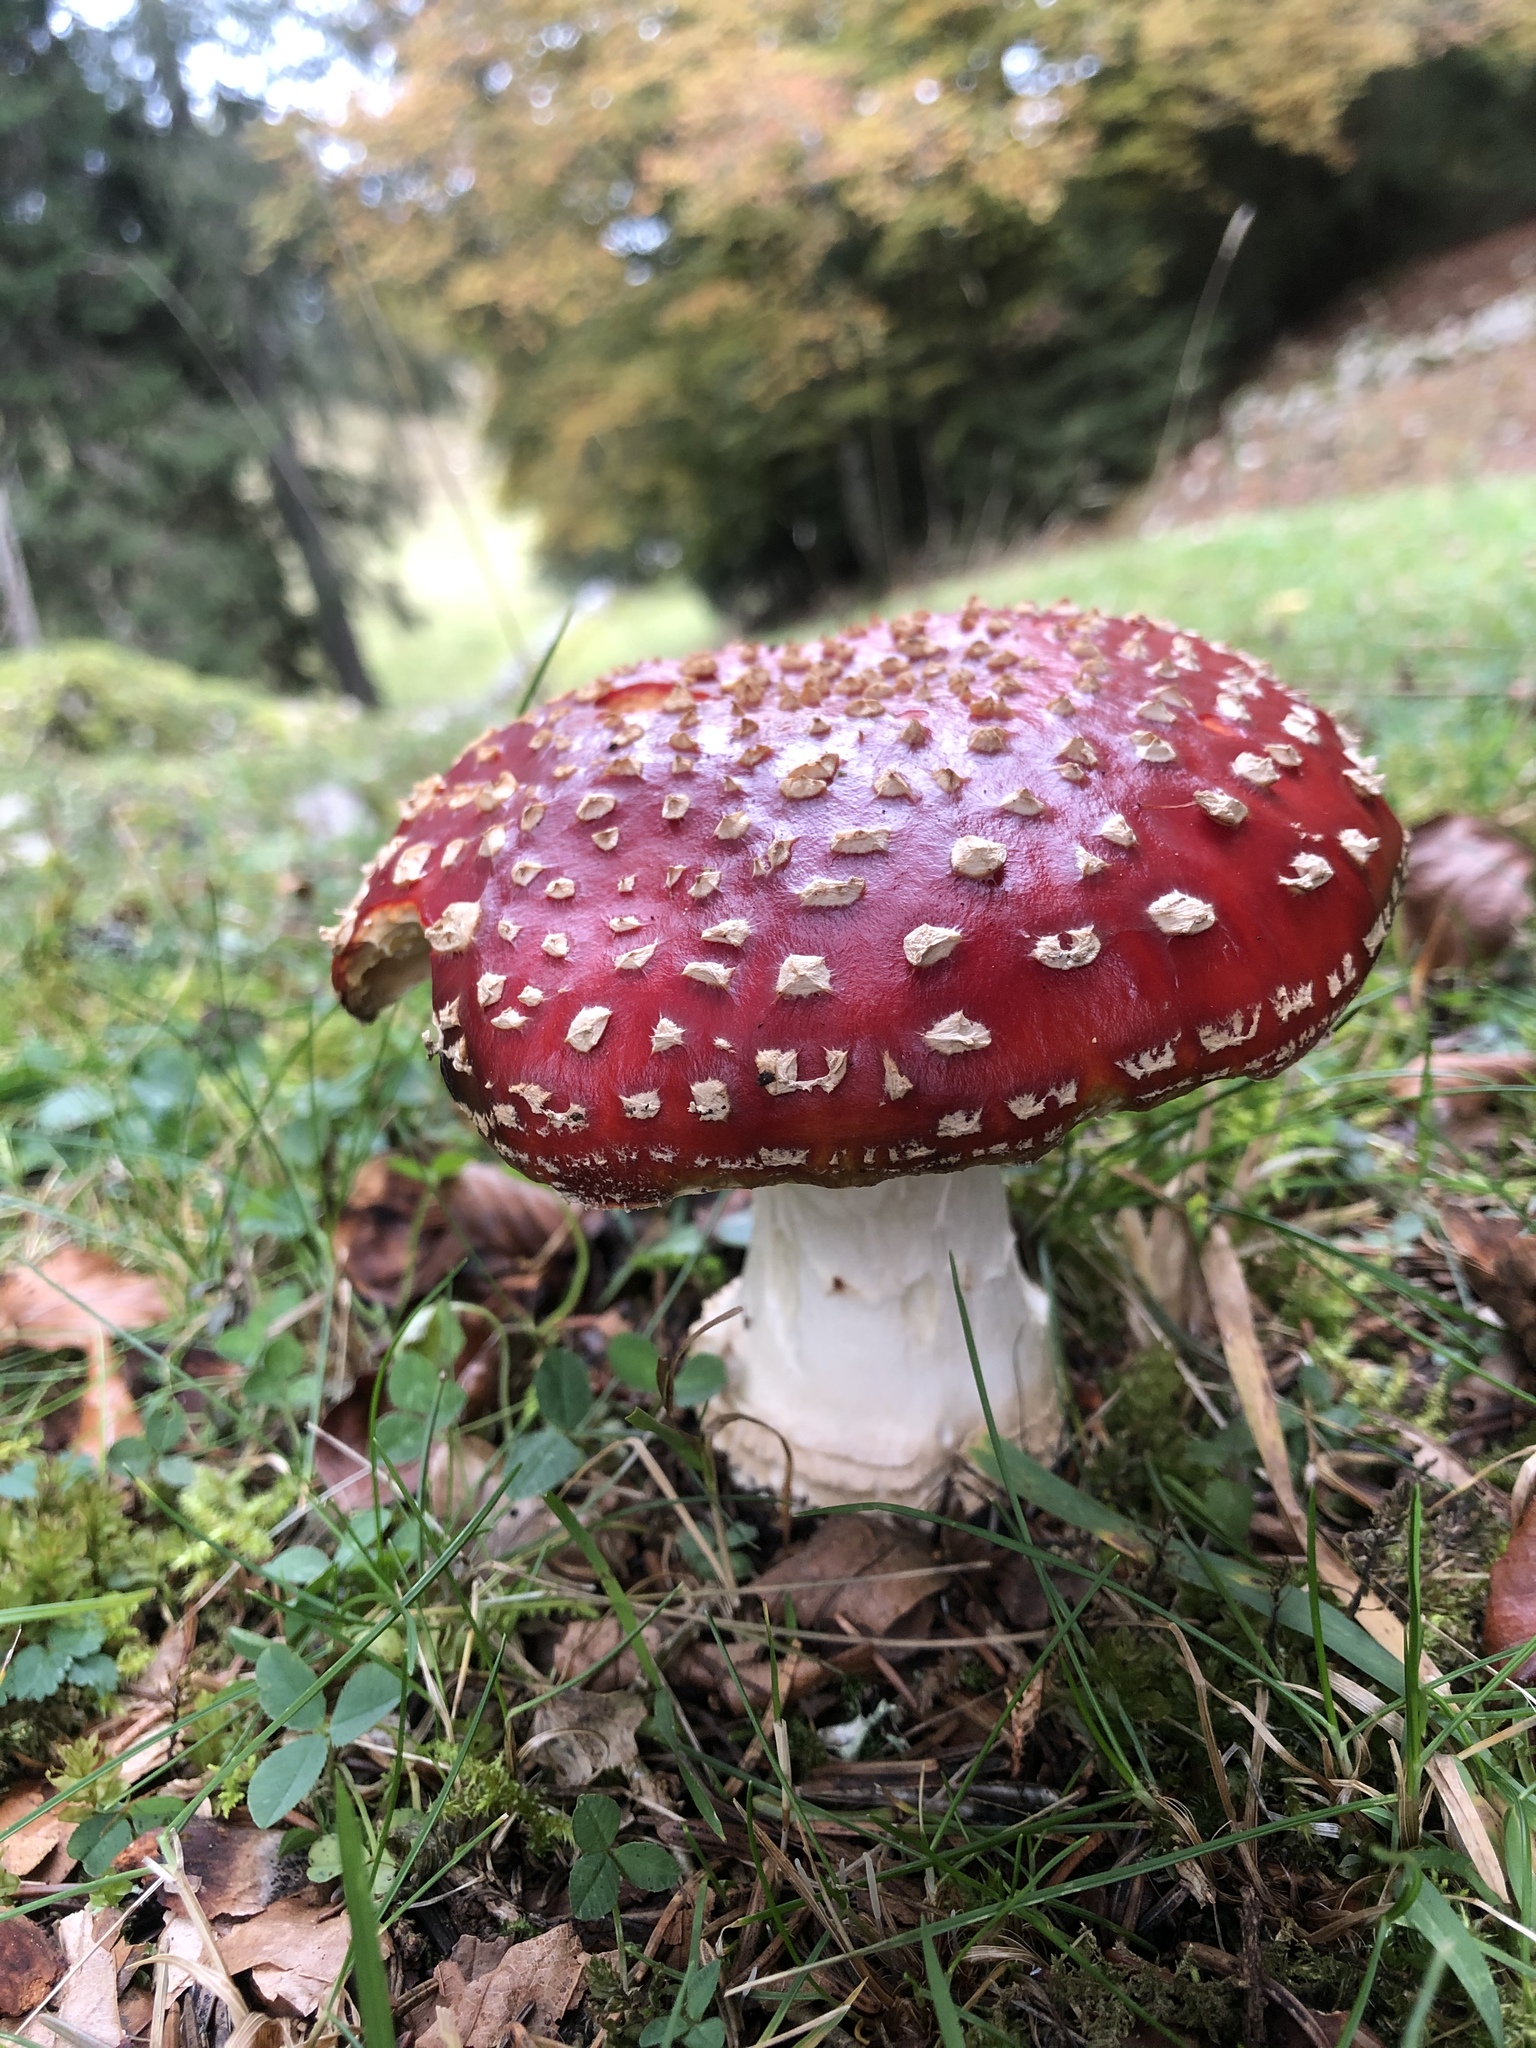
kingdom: Fungi
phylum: Basidiomycota
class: Agaricomycetes
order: Agaricales
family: Amanitaceae
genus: Amanita
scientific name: Amanita muscaria
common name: Fly agaric
